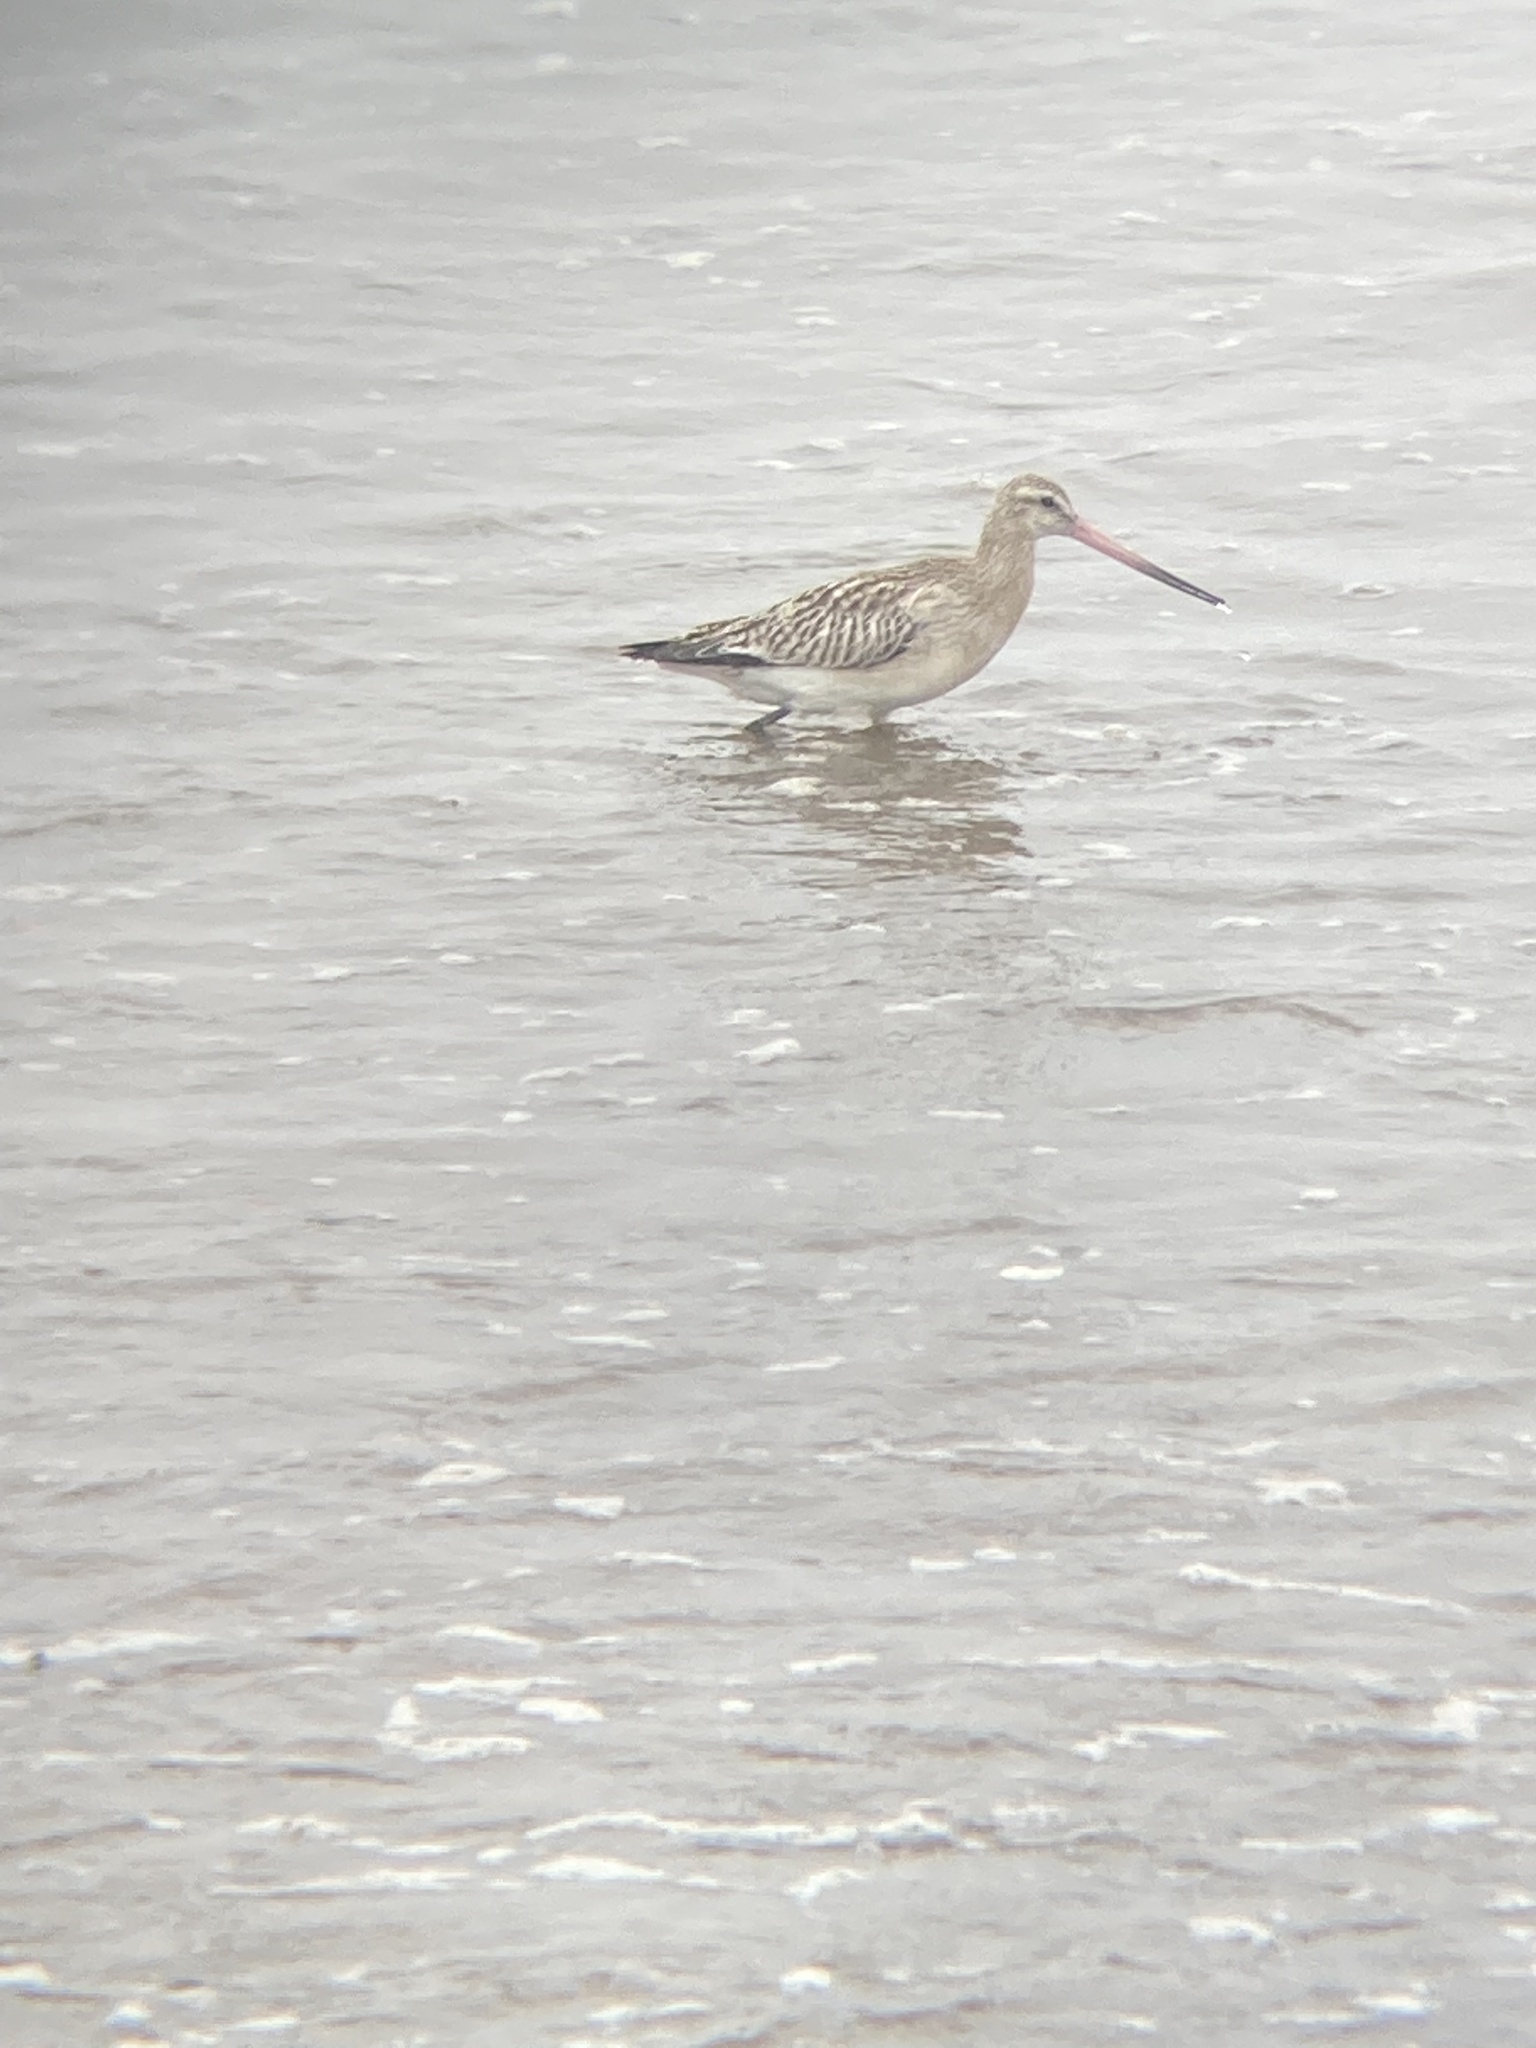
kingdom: Animalia
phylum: Chordata
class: Aves
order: Charadriiformes
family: Scolopacidae
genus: Limosa
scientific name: Limosa lapponica
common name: Bar-tailed godwit
